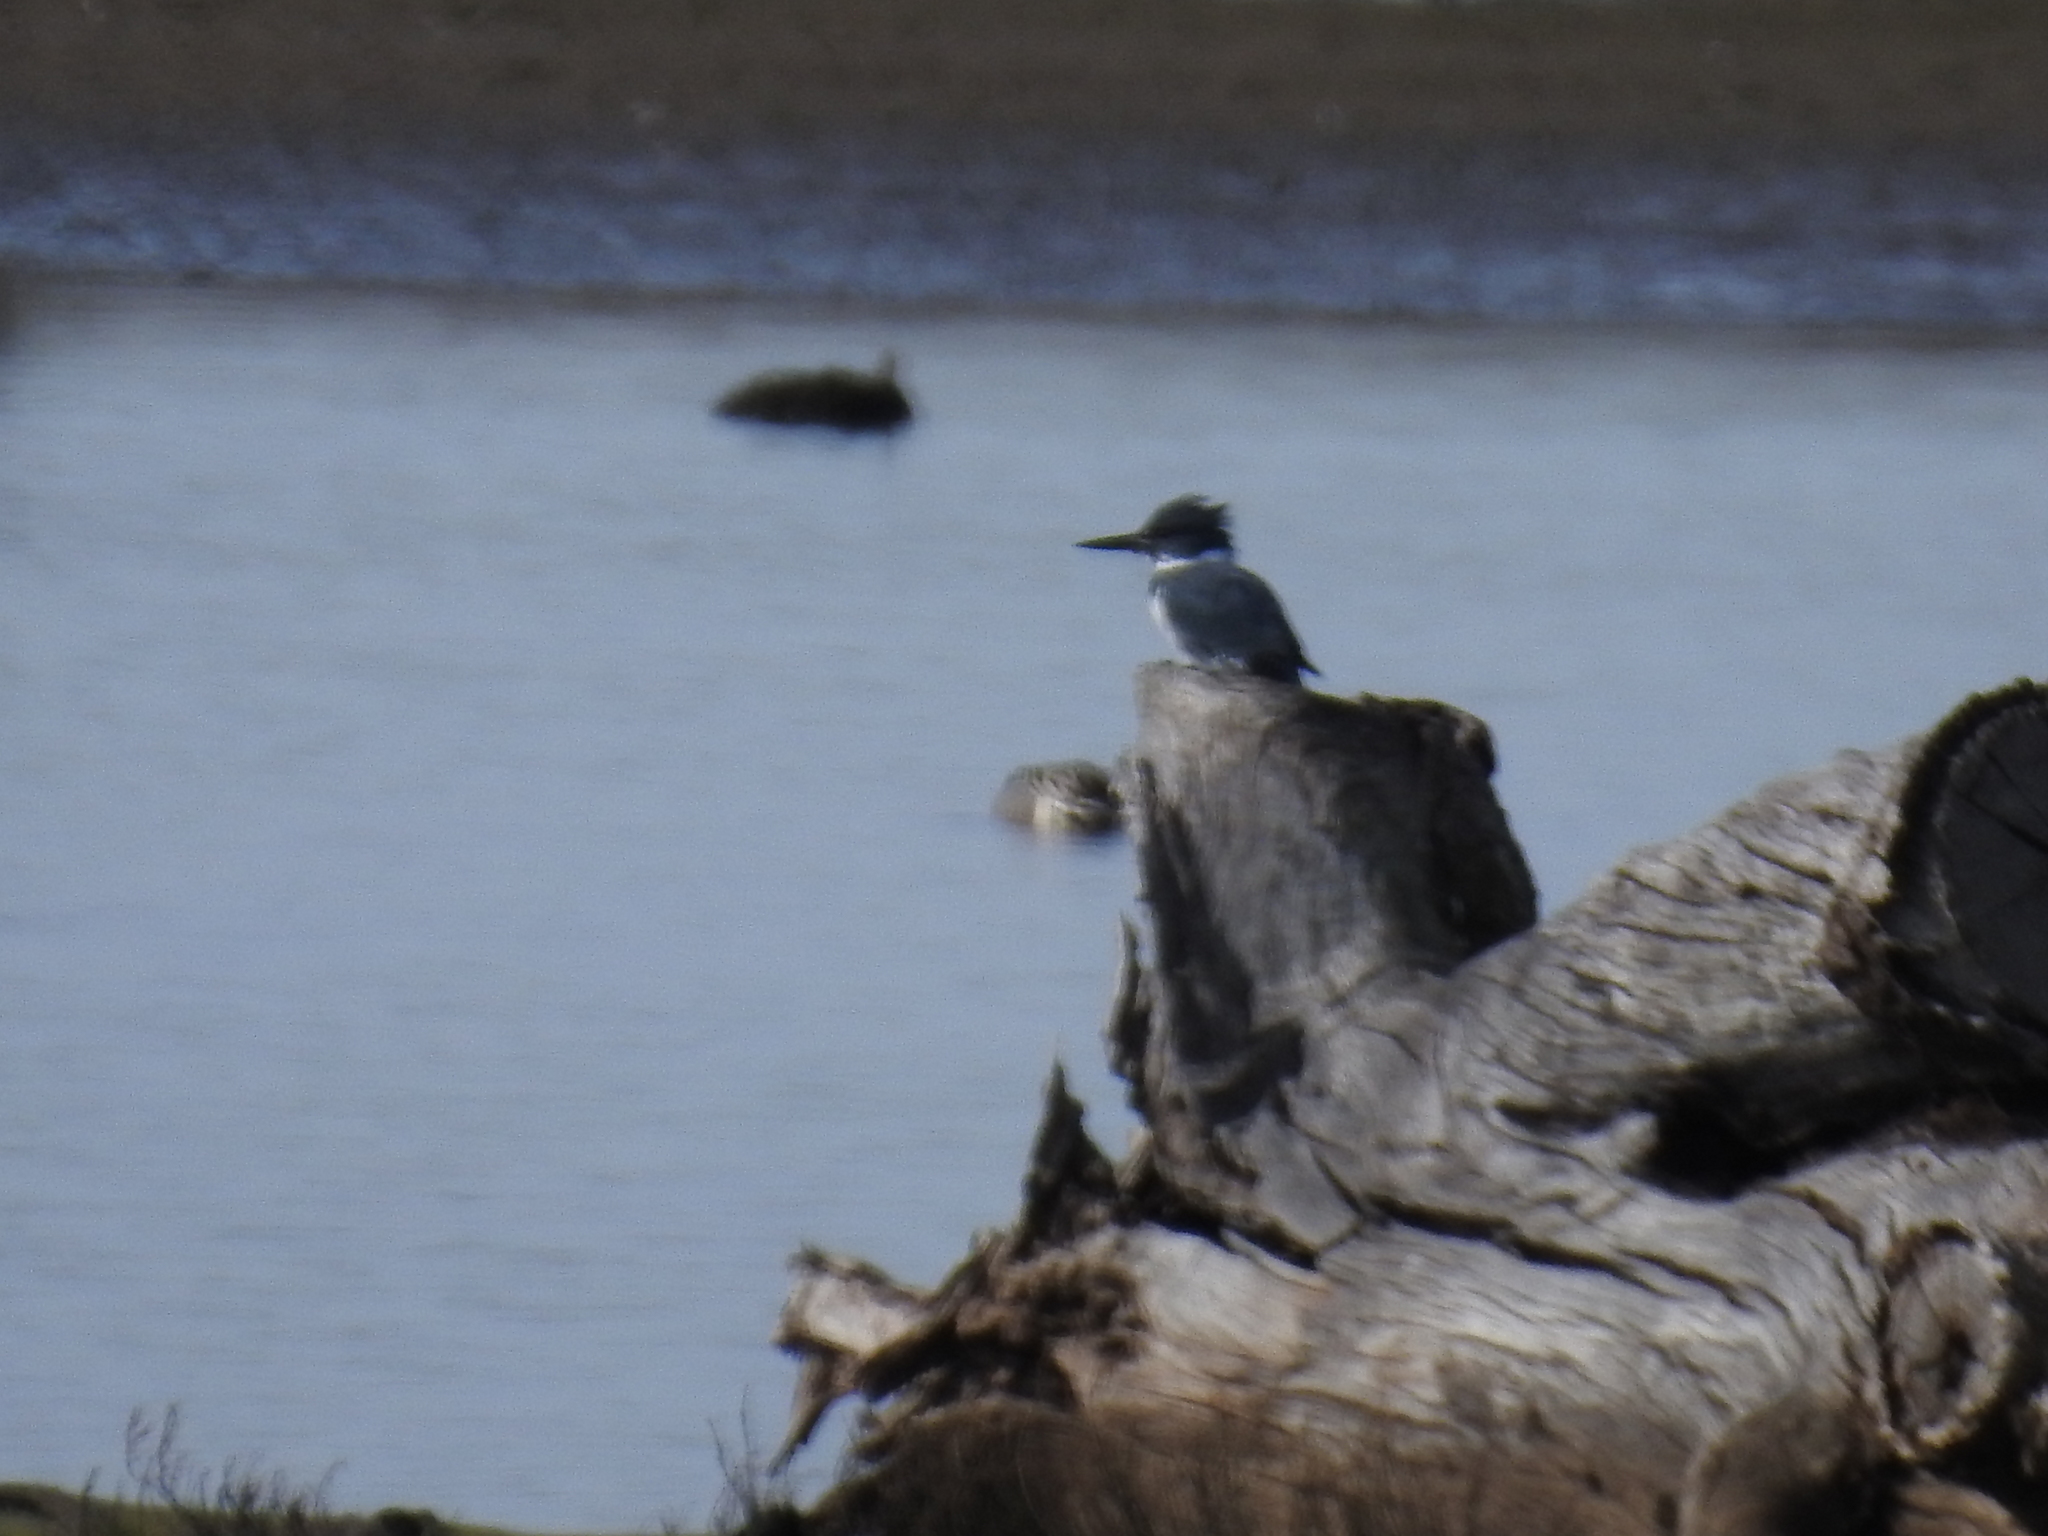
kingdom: Animalia
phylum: Chordata
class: Aves
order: Coraciiformes
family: Alcedinidae
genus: Megaceryle
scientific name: Megaceryle alcyon
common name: Belted kingfisher
